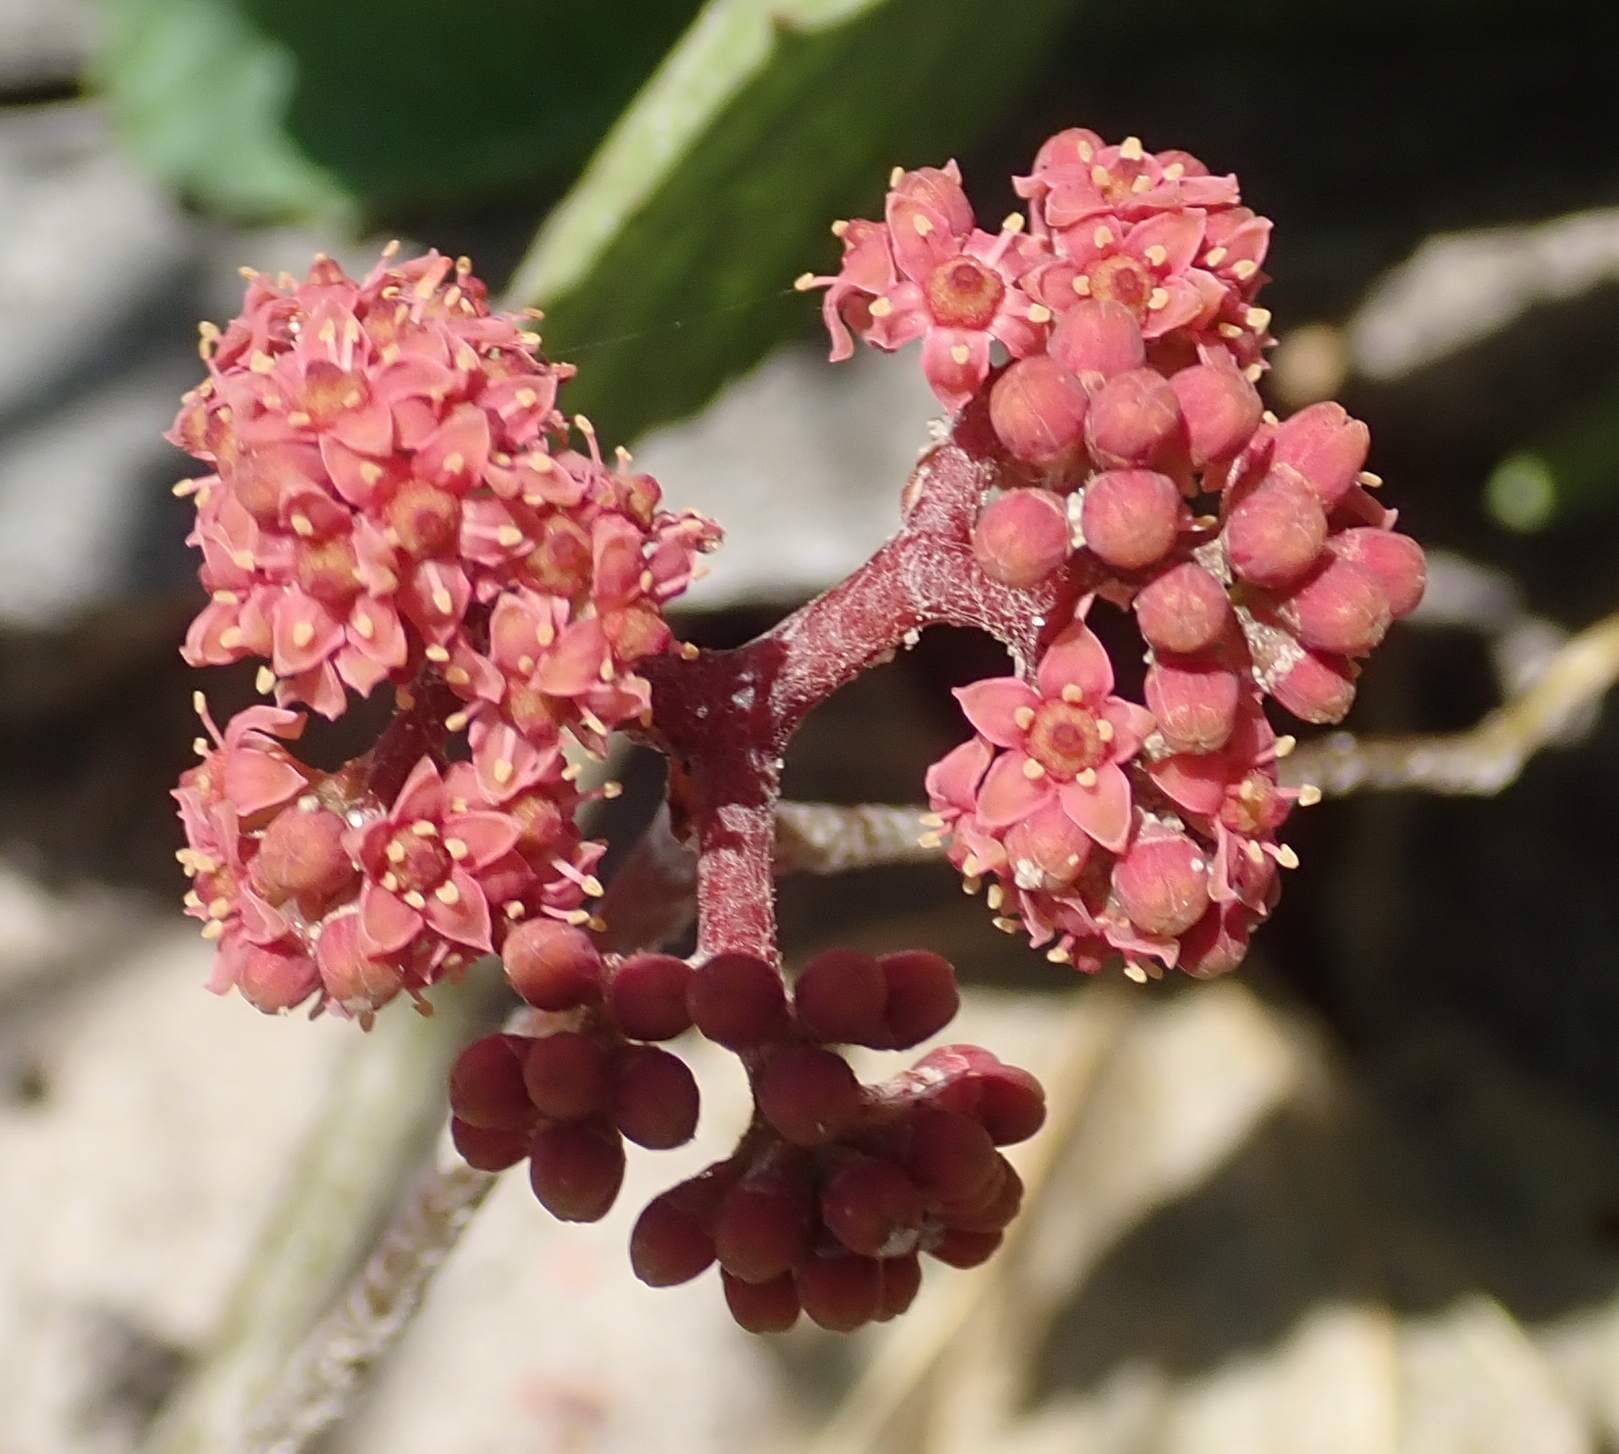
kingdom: Plantae
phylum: Tracheophyta
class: Magnoliopsida
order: Vitales
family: Vitaceae
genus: Ampelocissus
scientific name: Ampelocissus africana
